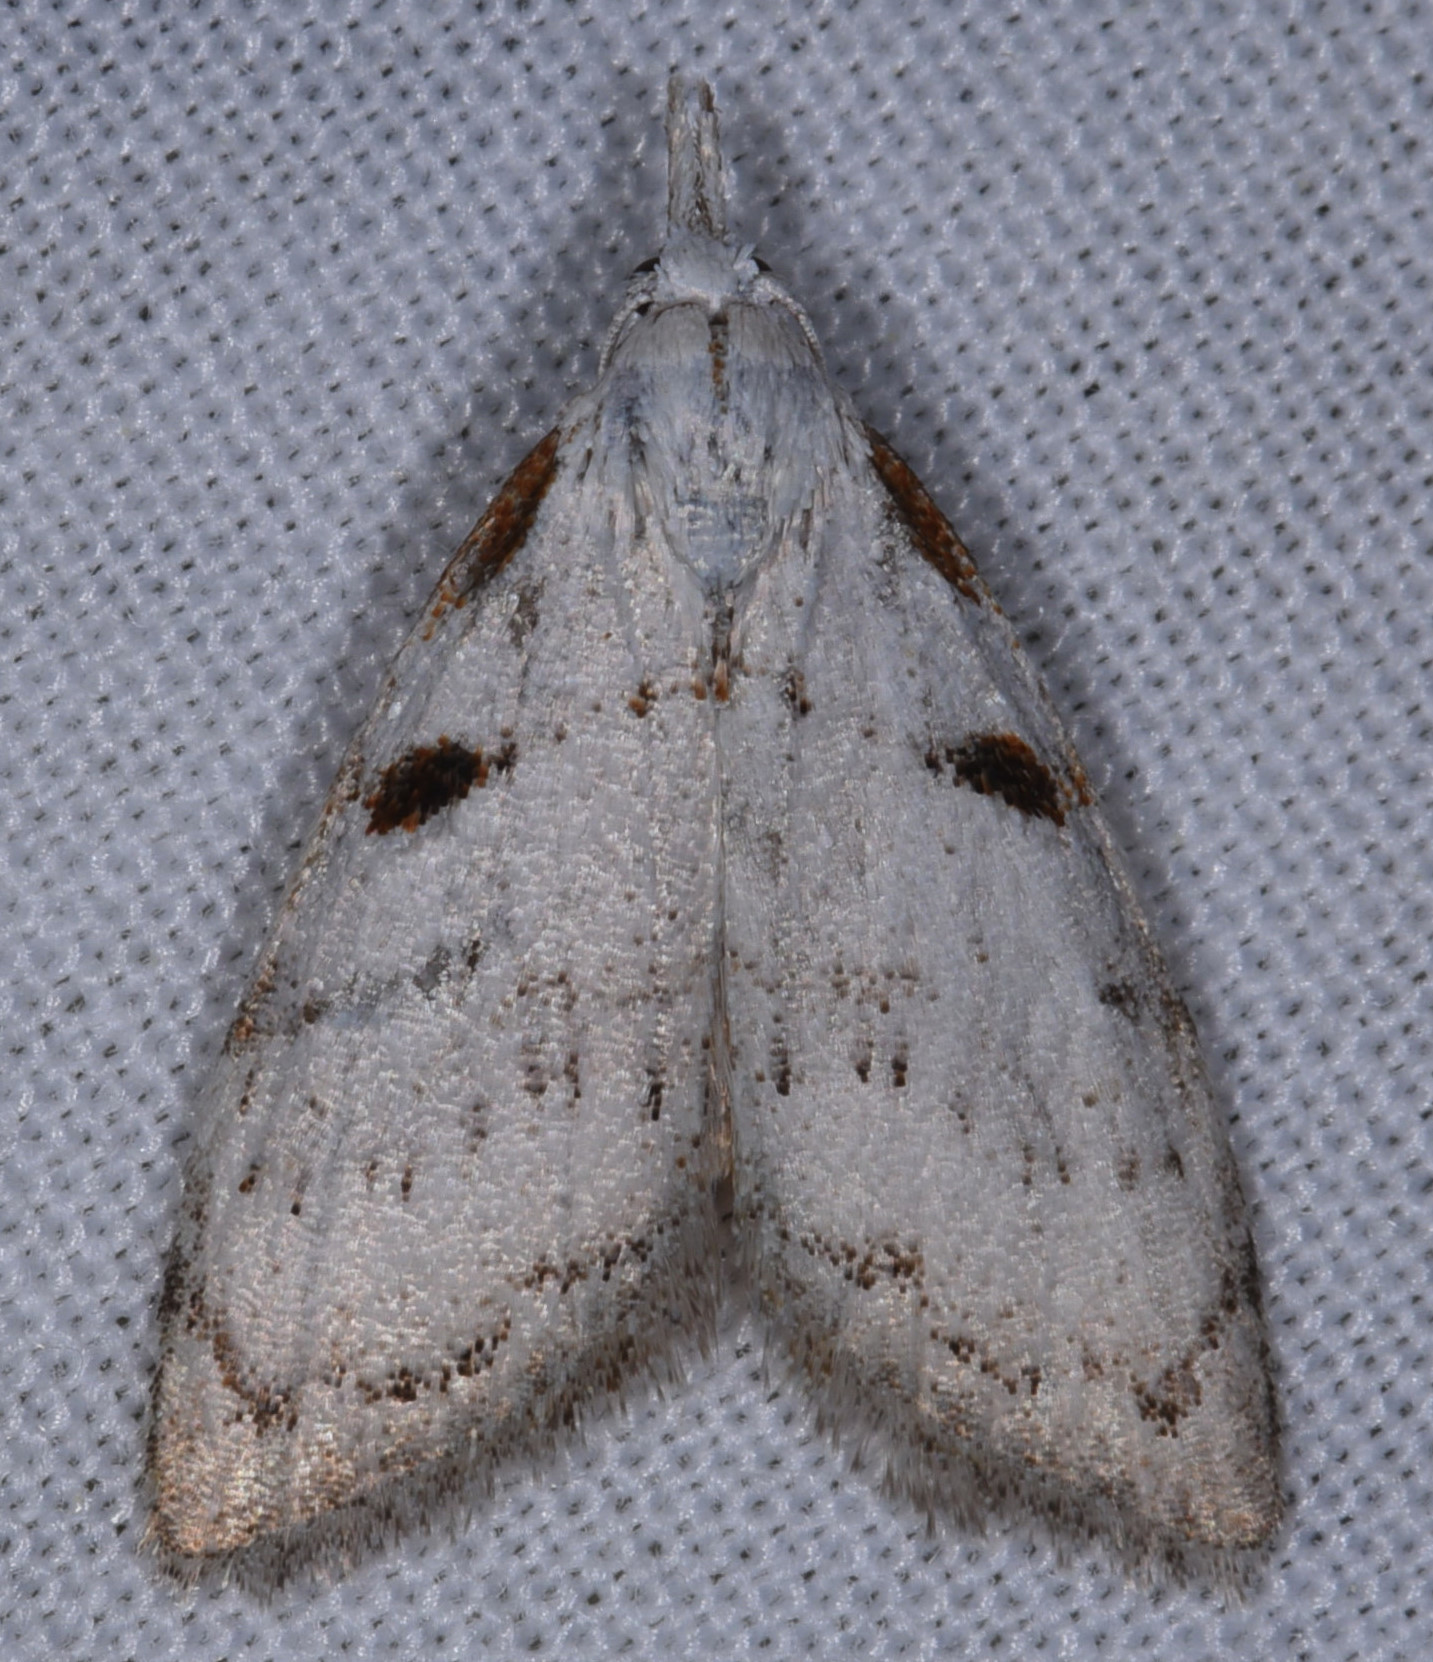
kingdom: Animalia
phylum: Arthropoda
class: Insecta
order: Lepidoptera
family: Nolidae
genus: Nola
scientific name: Nola minna
